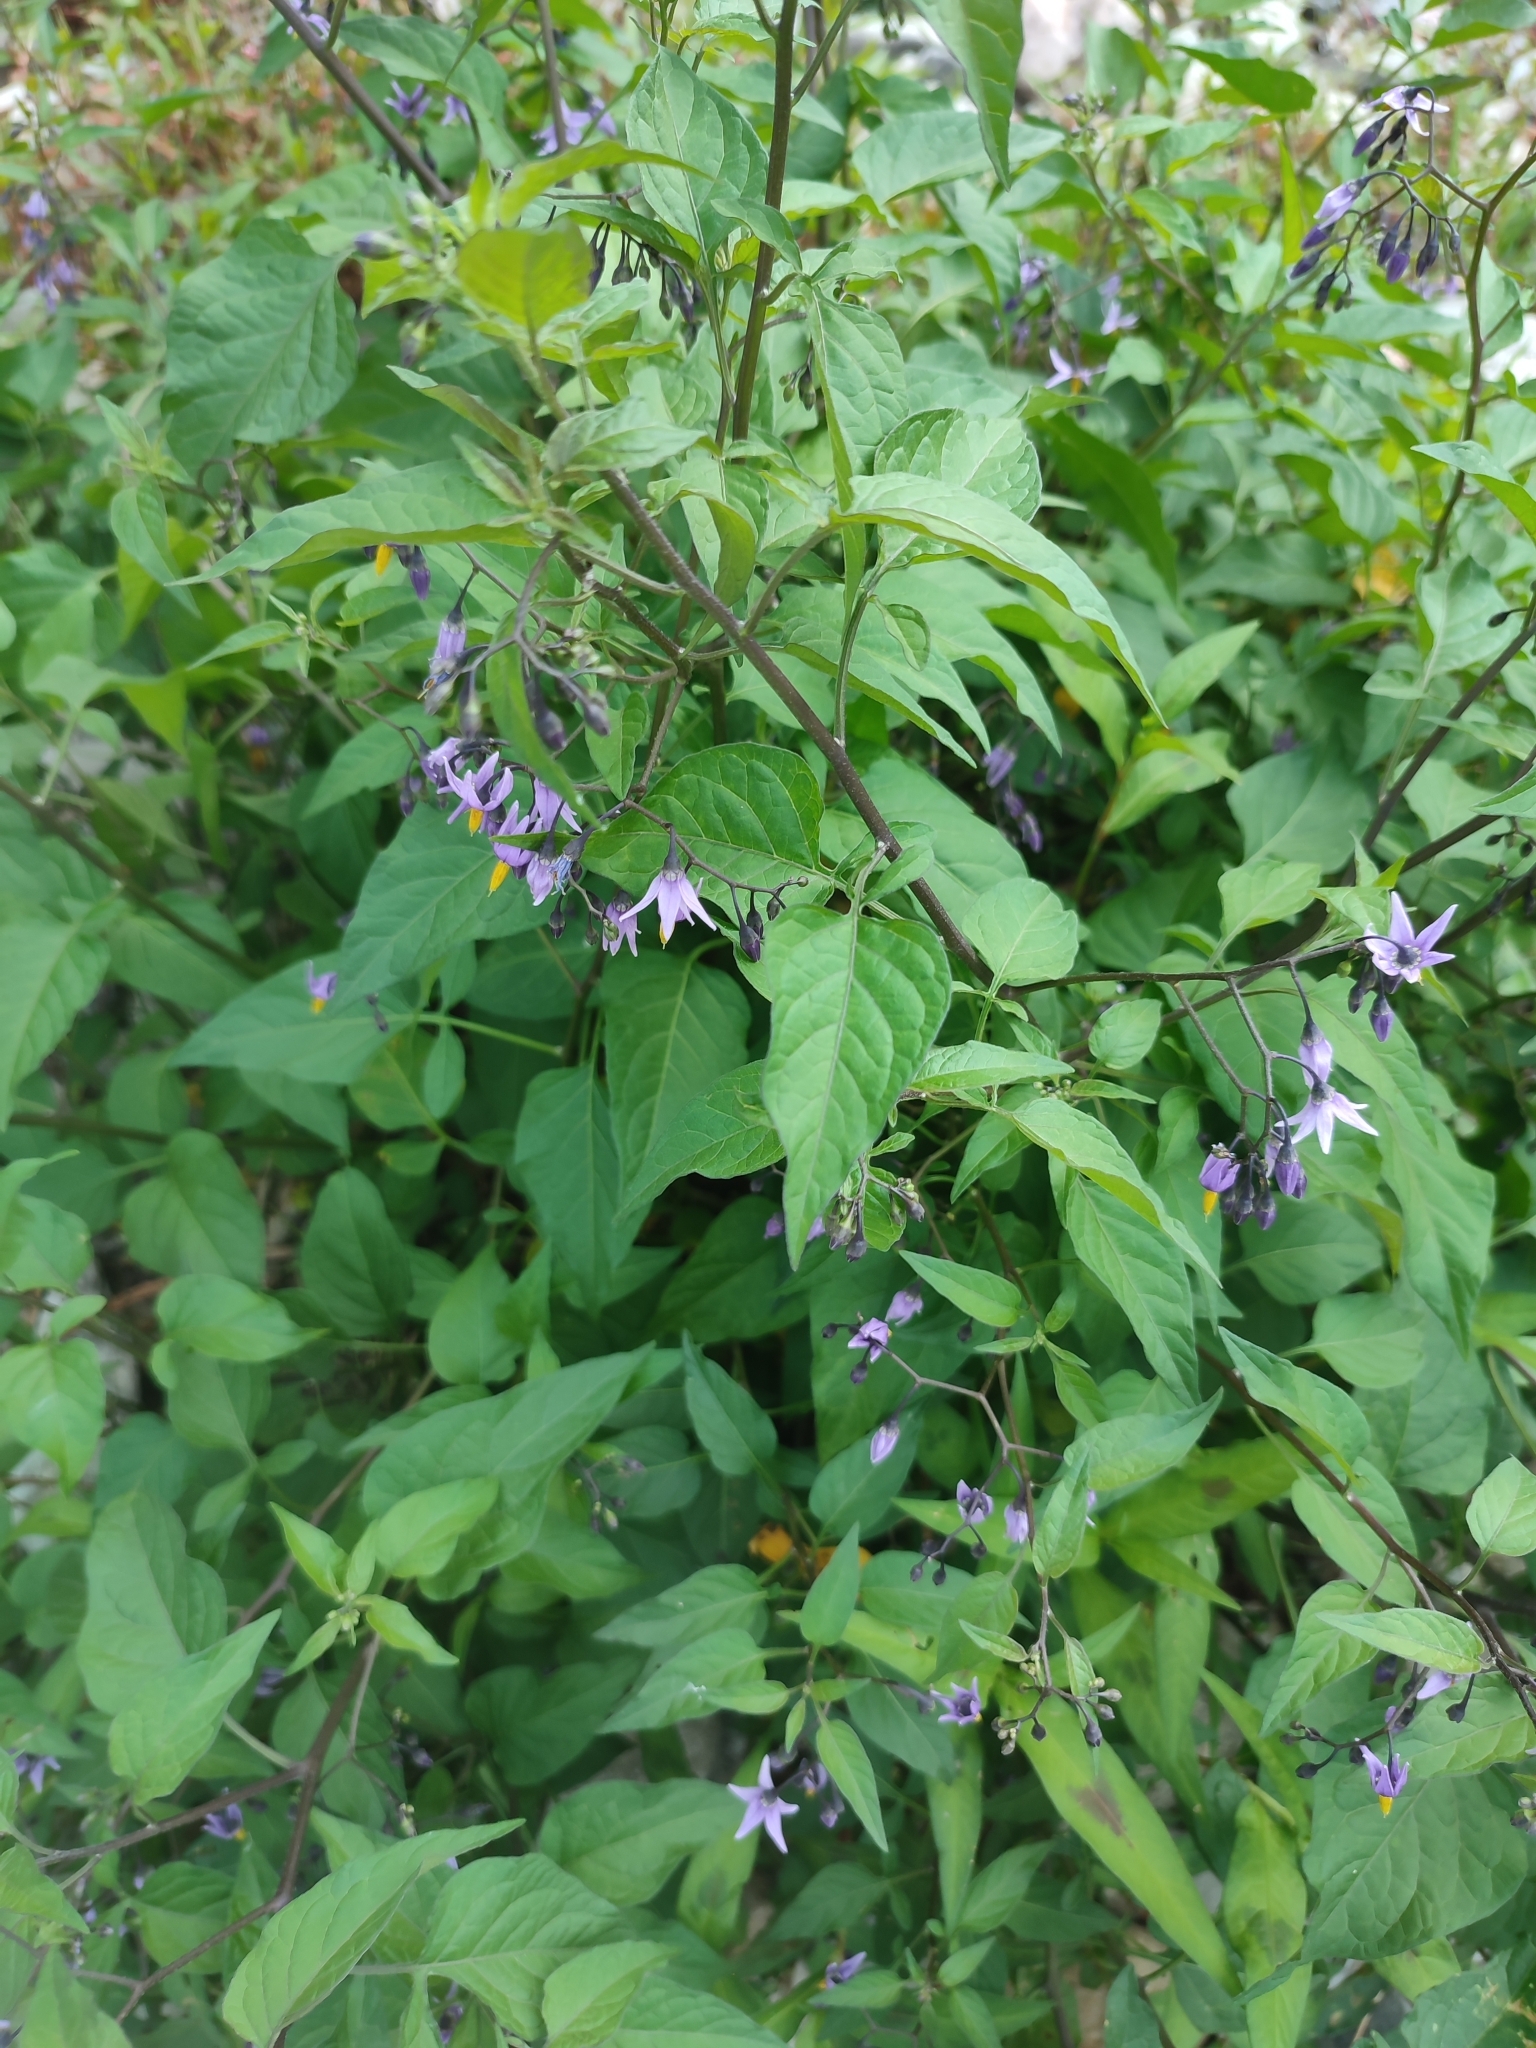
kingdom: Plantae
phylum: Tracheophyta
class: Magnoliopsida
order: Solanales
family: Solanaceae
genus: Solanum
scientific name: Solanum dulcamara
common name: Climbing nightshade
